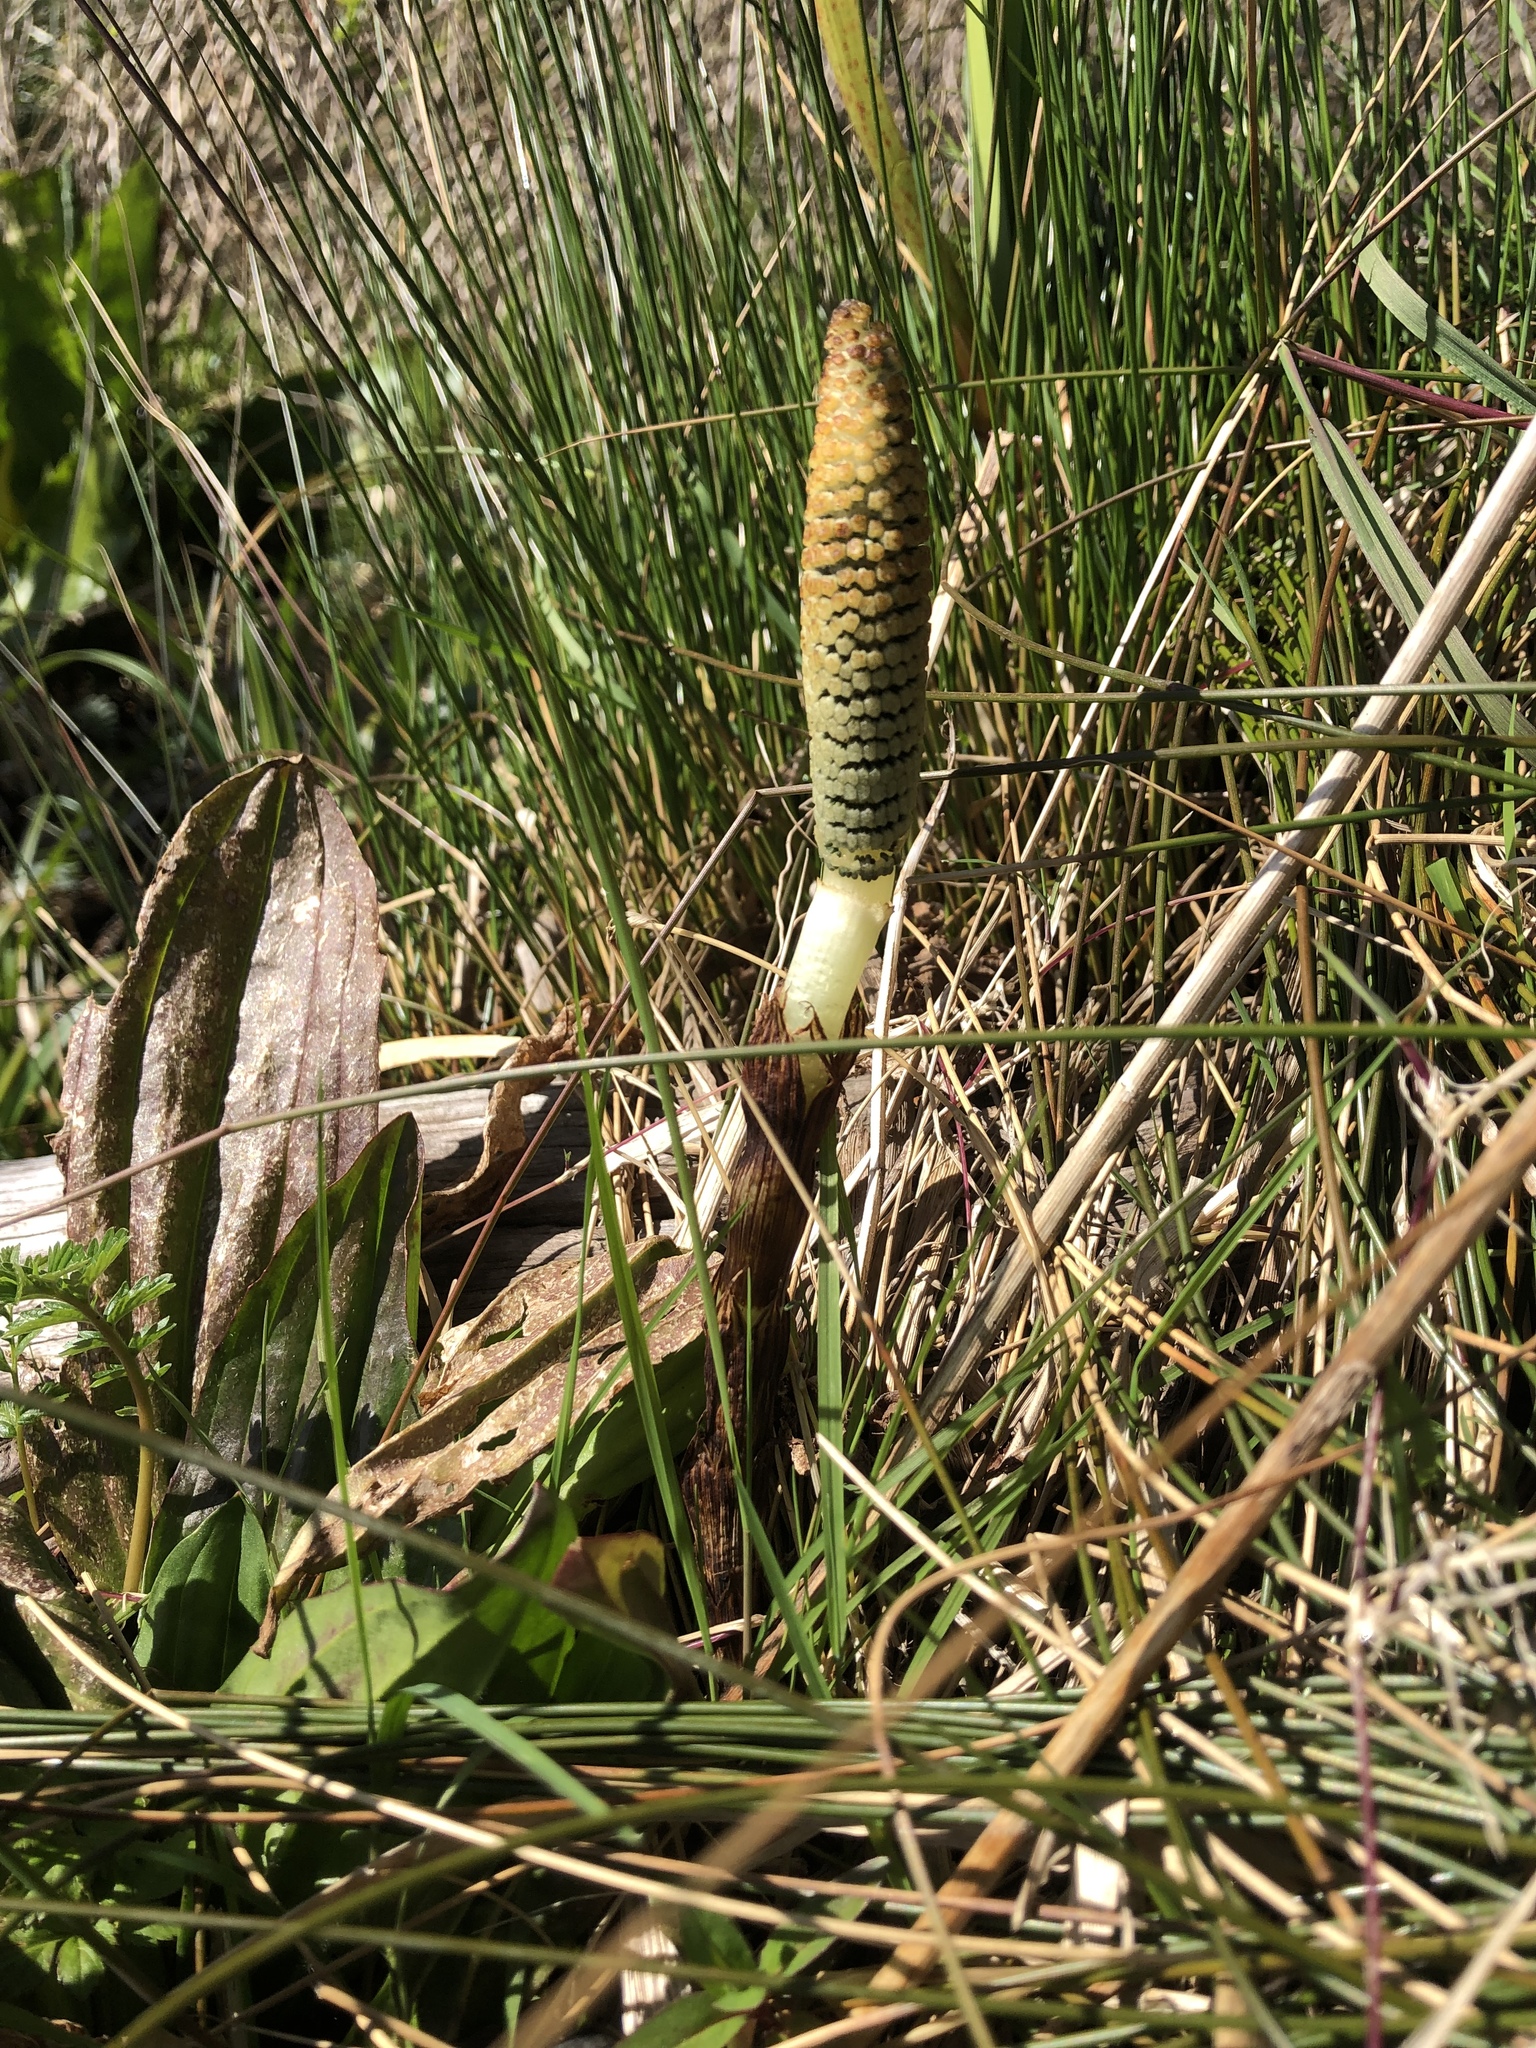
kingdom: Plantae
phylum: Tracheophyta
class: Polypodiopsida
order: Equisetales
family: Equisetaceae
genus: Equisetum
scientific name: Equisetum telmateia
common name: Great horsetail
